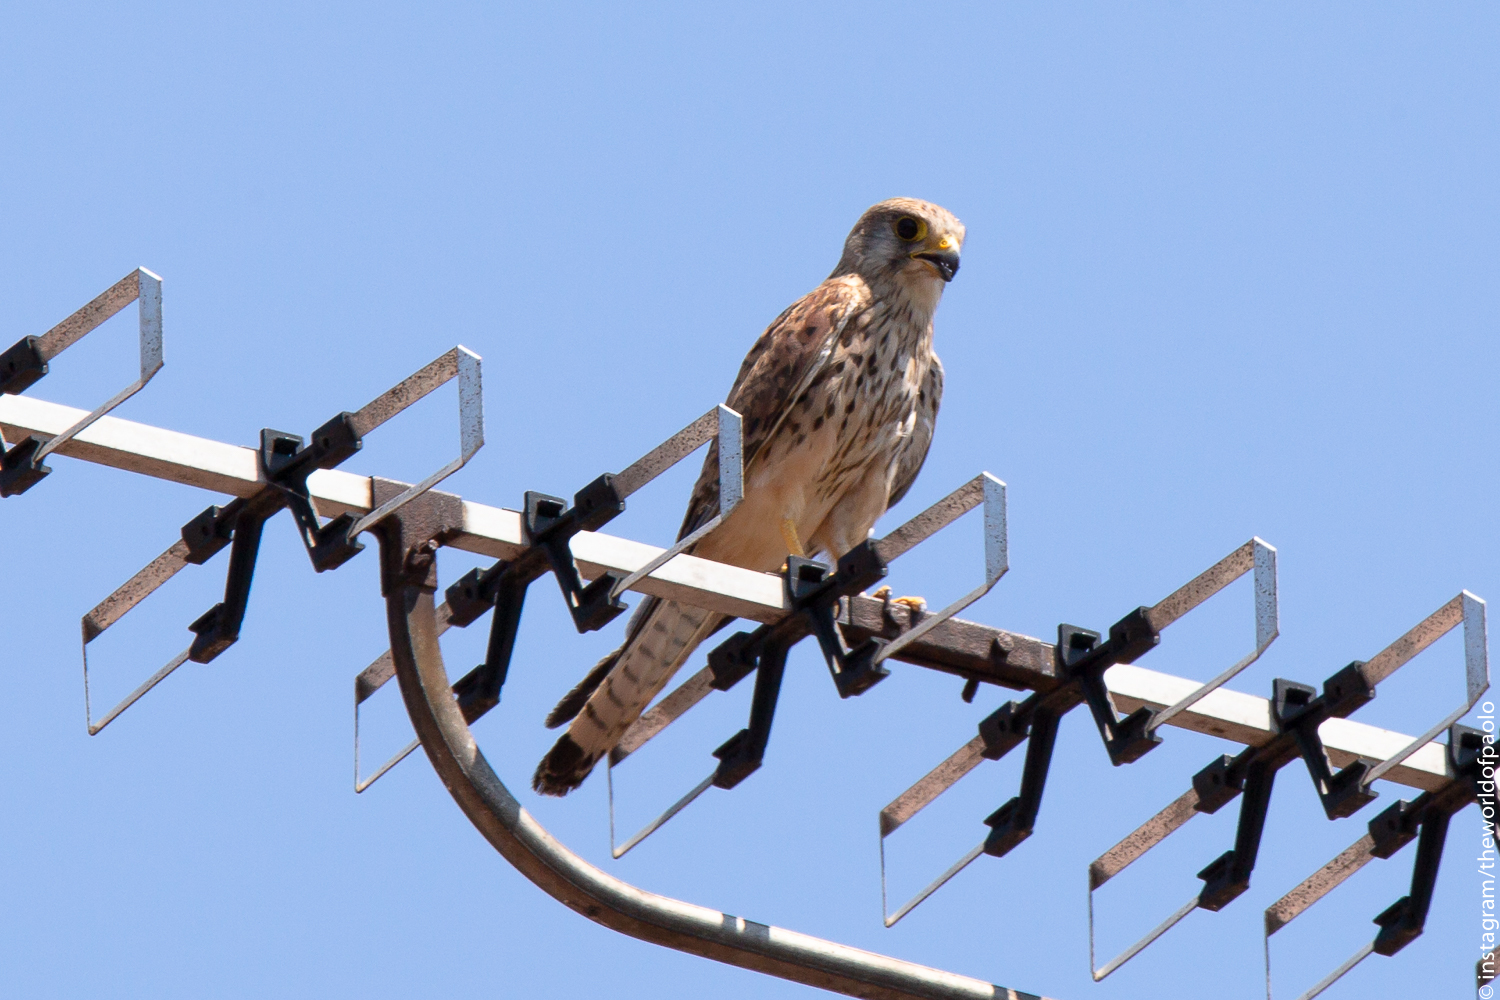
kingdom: Animalia
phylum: Chordata
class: Aves
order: Falconiformes
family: Falconidae
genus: Falco
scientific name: Falco tinnunculus
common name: Common kestrel
